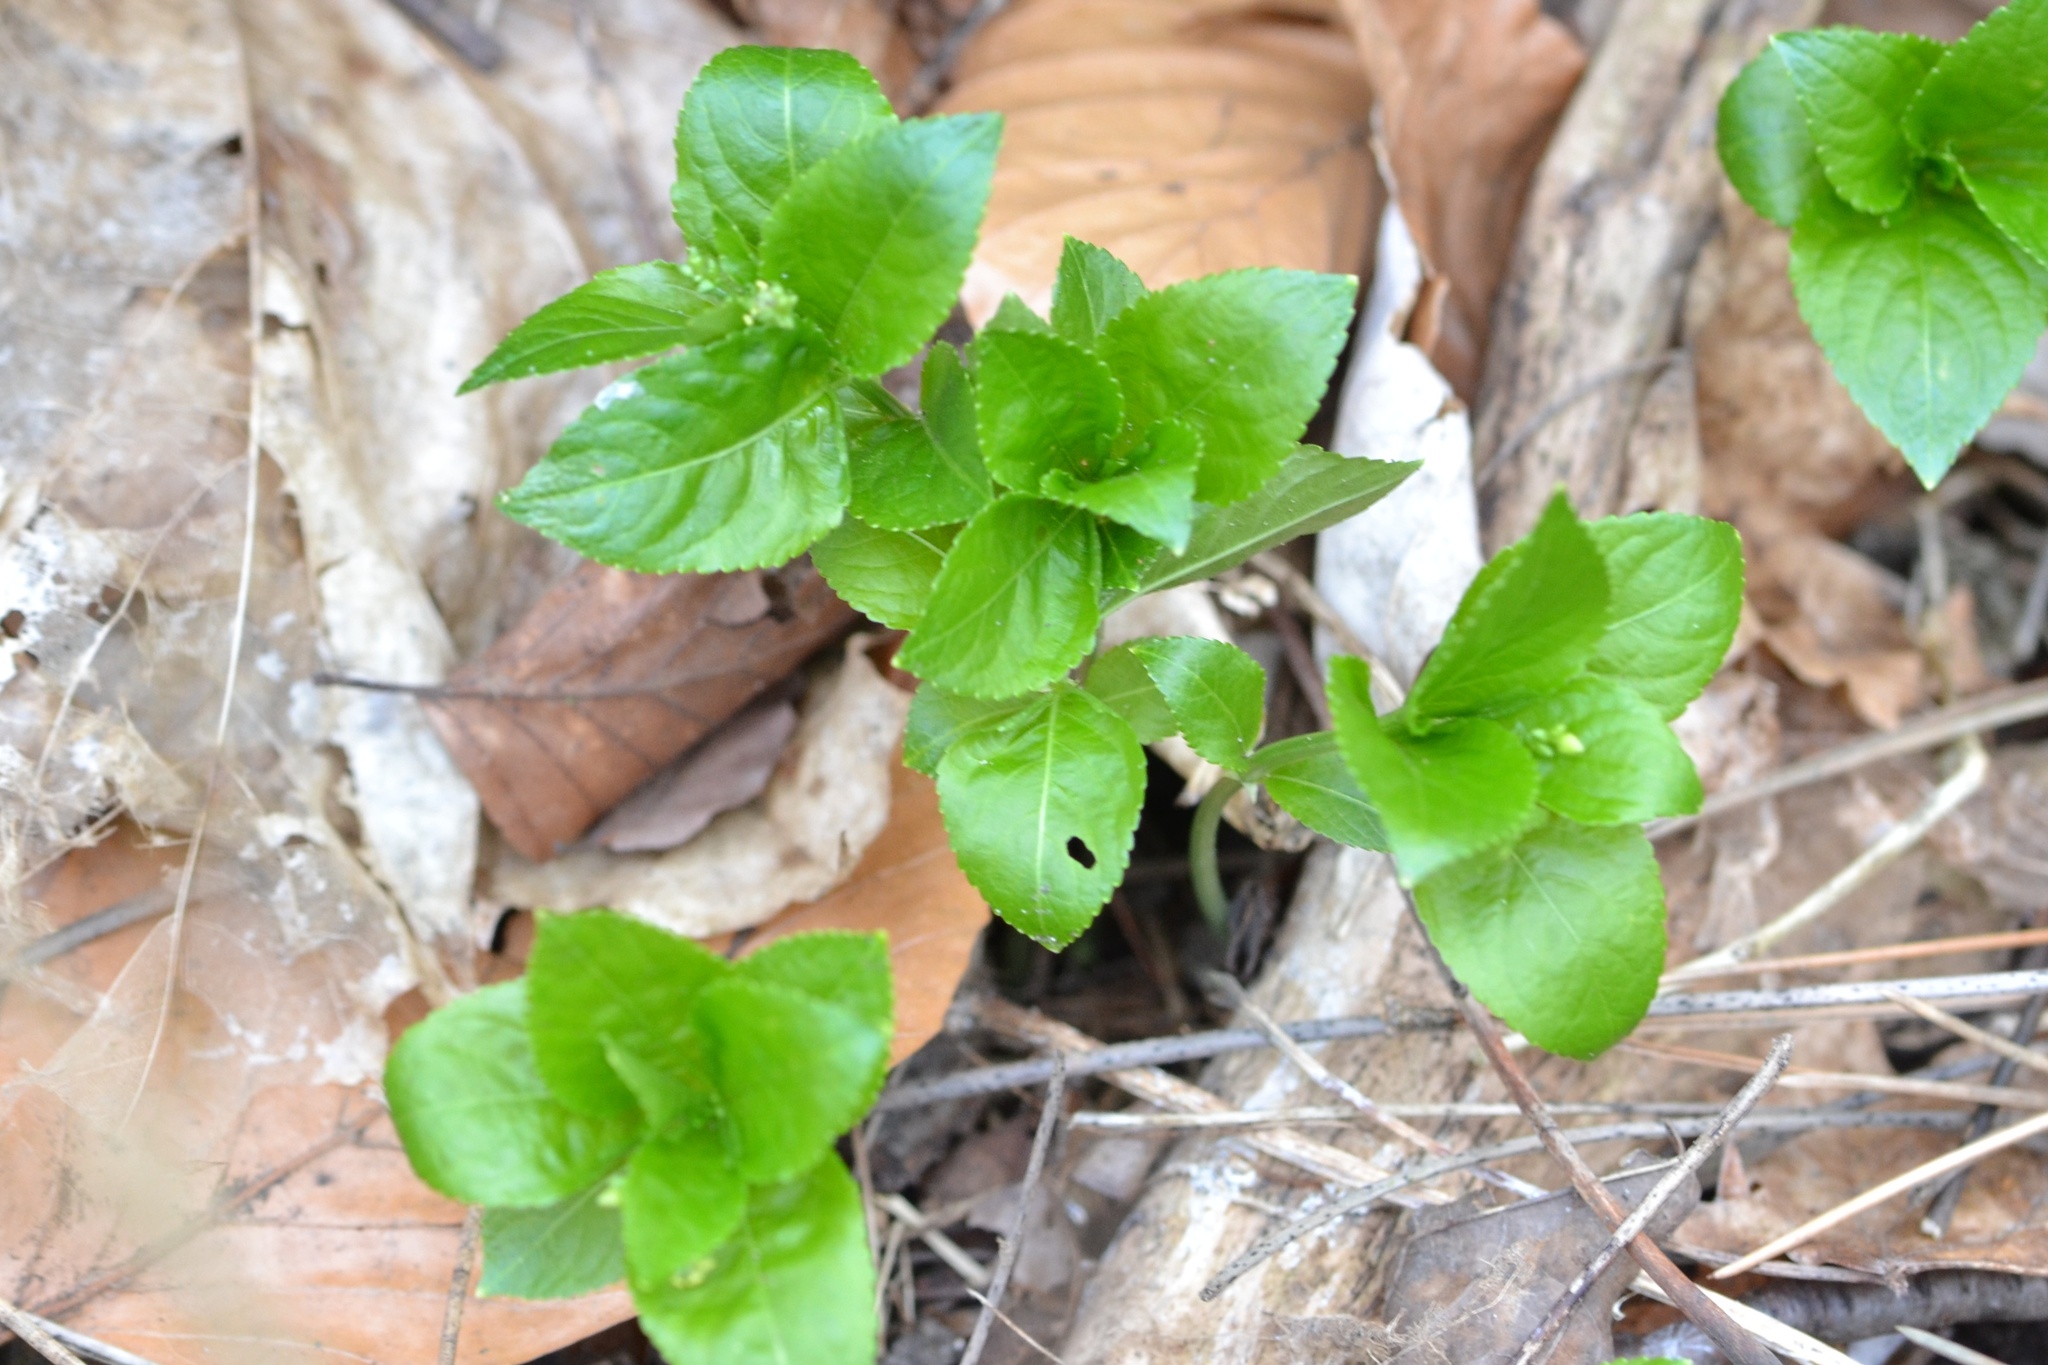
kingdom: Plantae
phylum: Tracheophyta
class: Magnoliopsida
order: Malpighiales
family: Euphorbiaceae
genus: Mercurialis
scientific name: Mercurialis perennis
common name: Dog mercury
